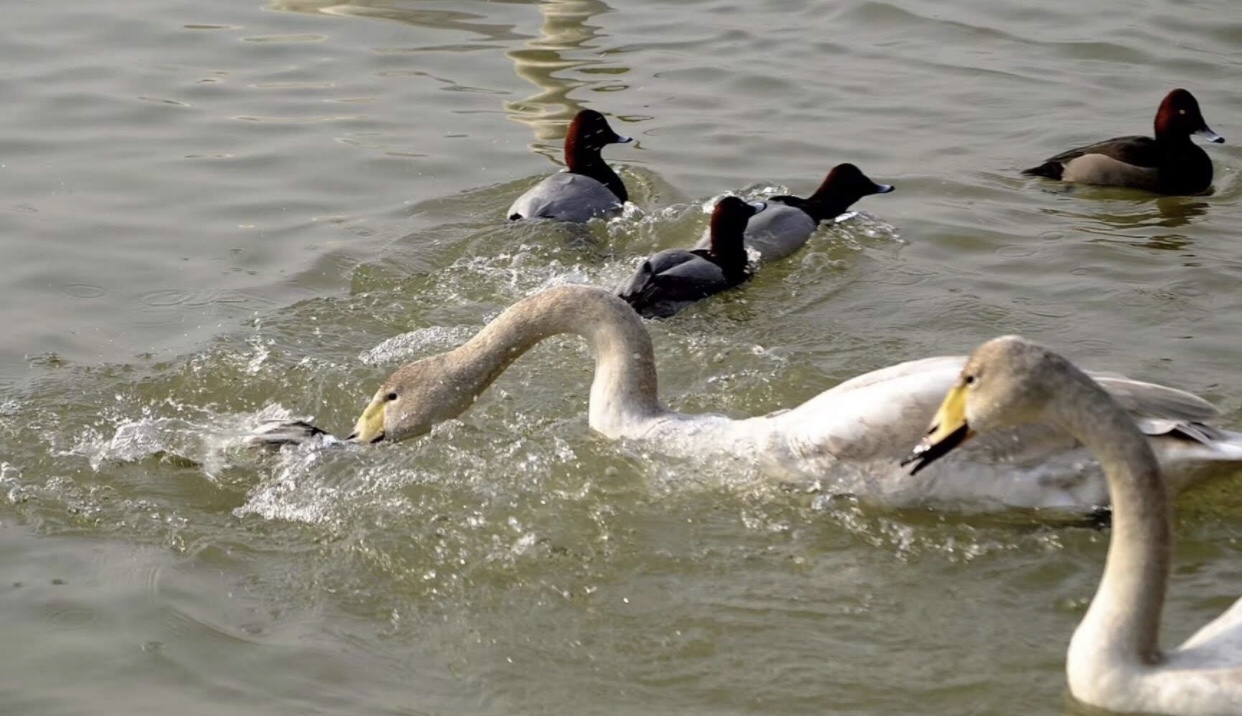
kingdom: Animalia
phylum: Chordata
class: Aves
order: Anseriformes
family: Anatidae
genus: Cygnus
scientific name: Cygnus cygnus
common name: Whooper swan
